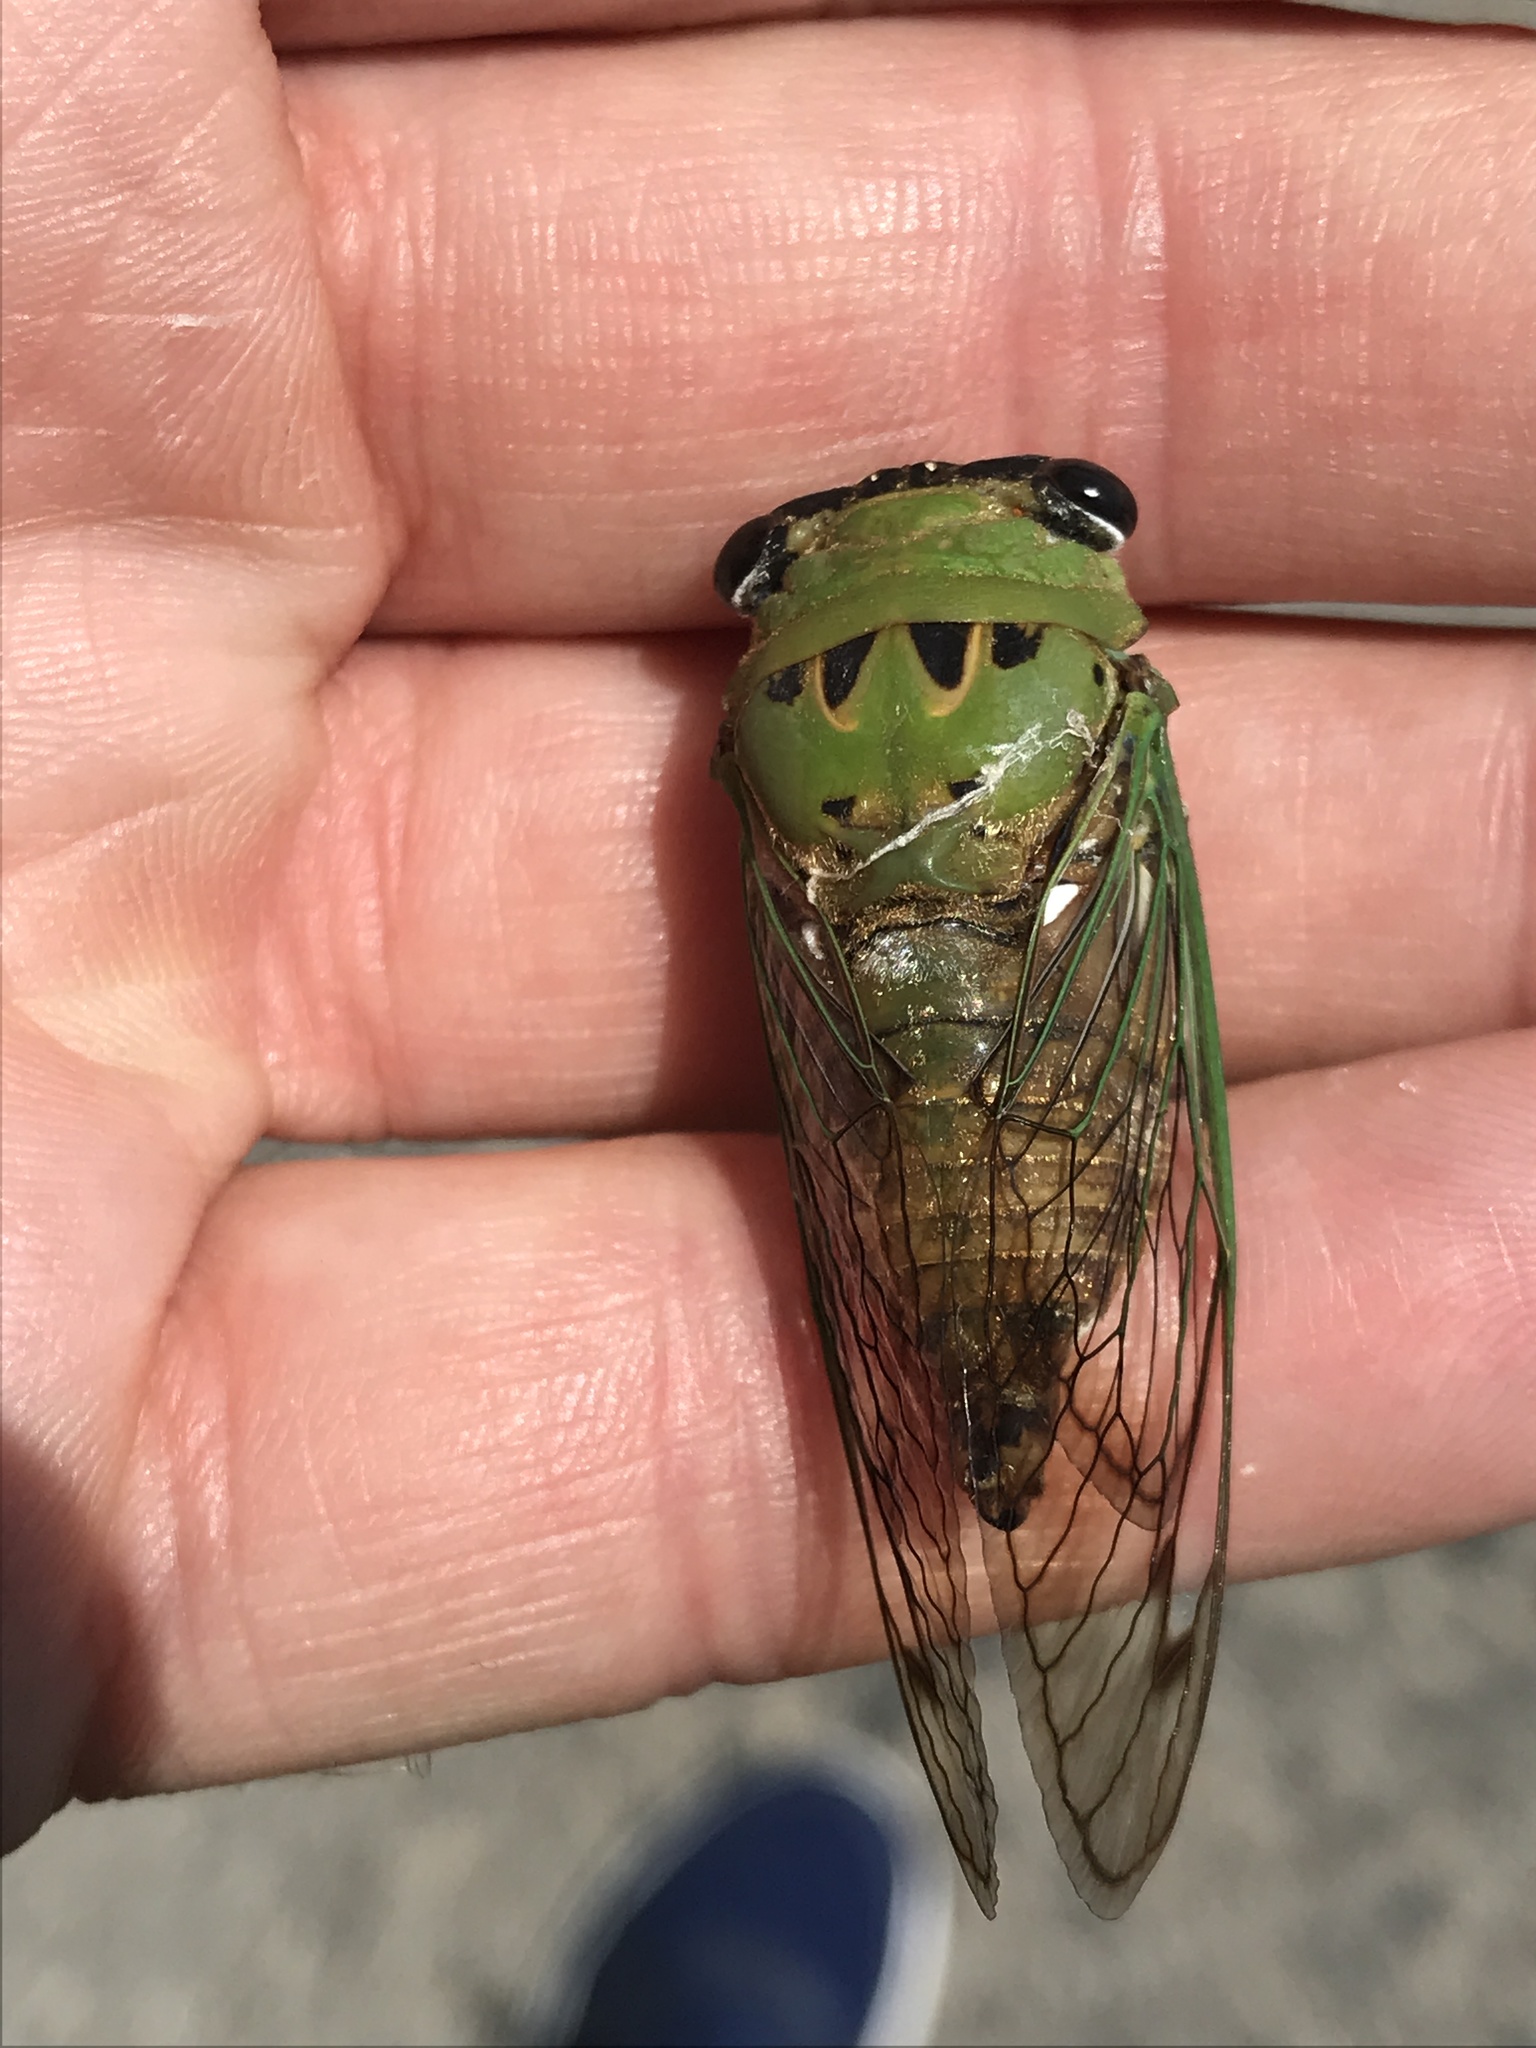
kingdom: Animalia
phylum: Arthropoda
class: Insecta
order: Hemiptera
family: Cicadidae
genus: Neotibicen
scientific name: Neotibicen superbus
